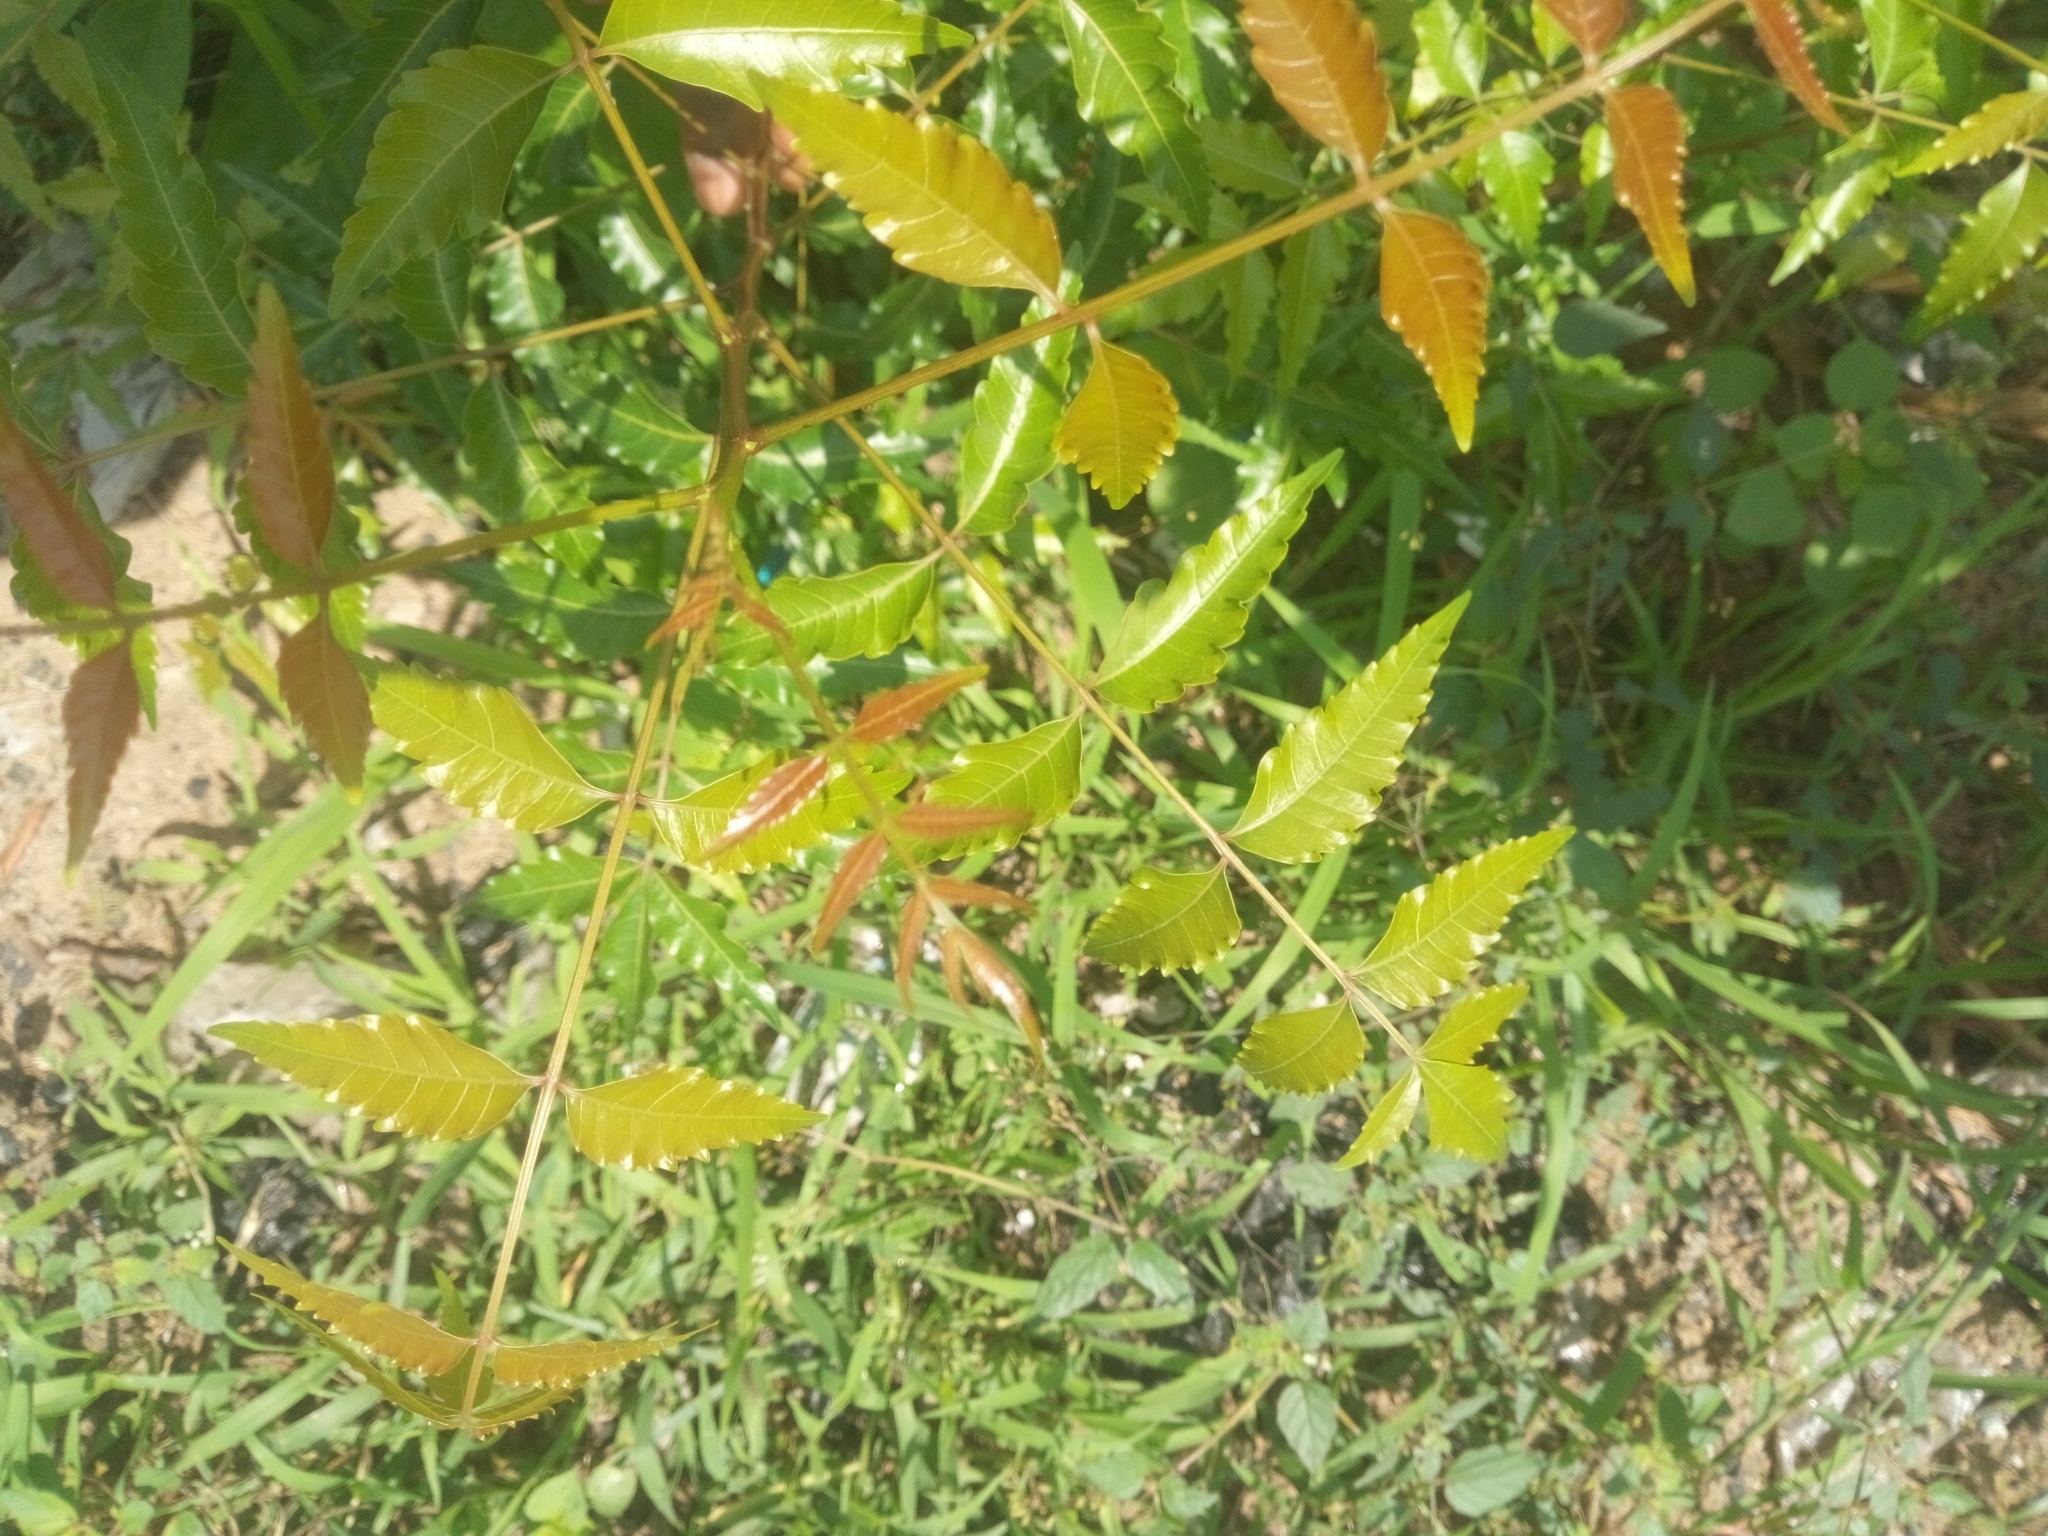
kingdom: Plantae
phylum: Tracheophyta
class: Magnoliopsida
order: Sapindales
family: Meliaceae
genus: Azadirachta
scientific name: Azadirachta indica
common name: Neem
